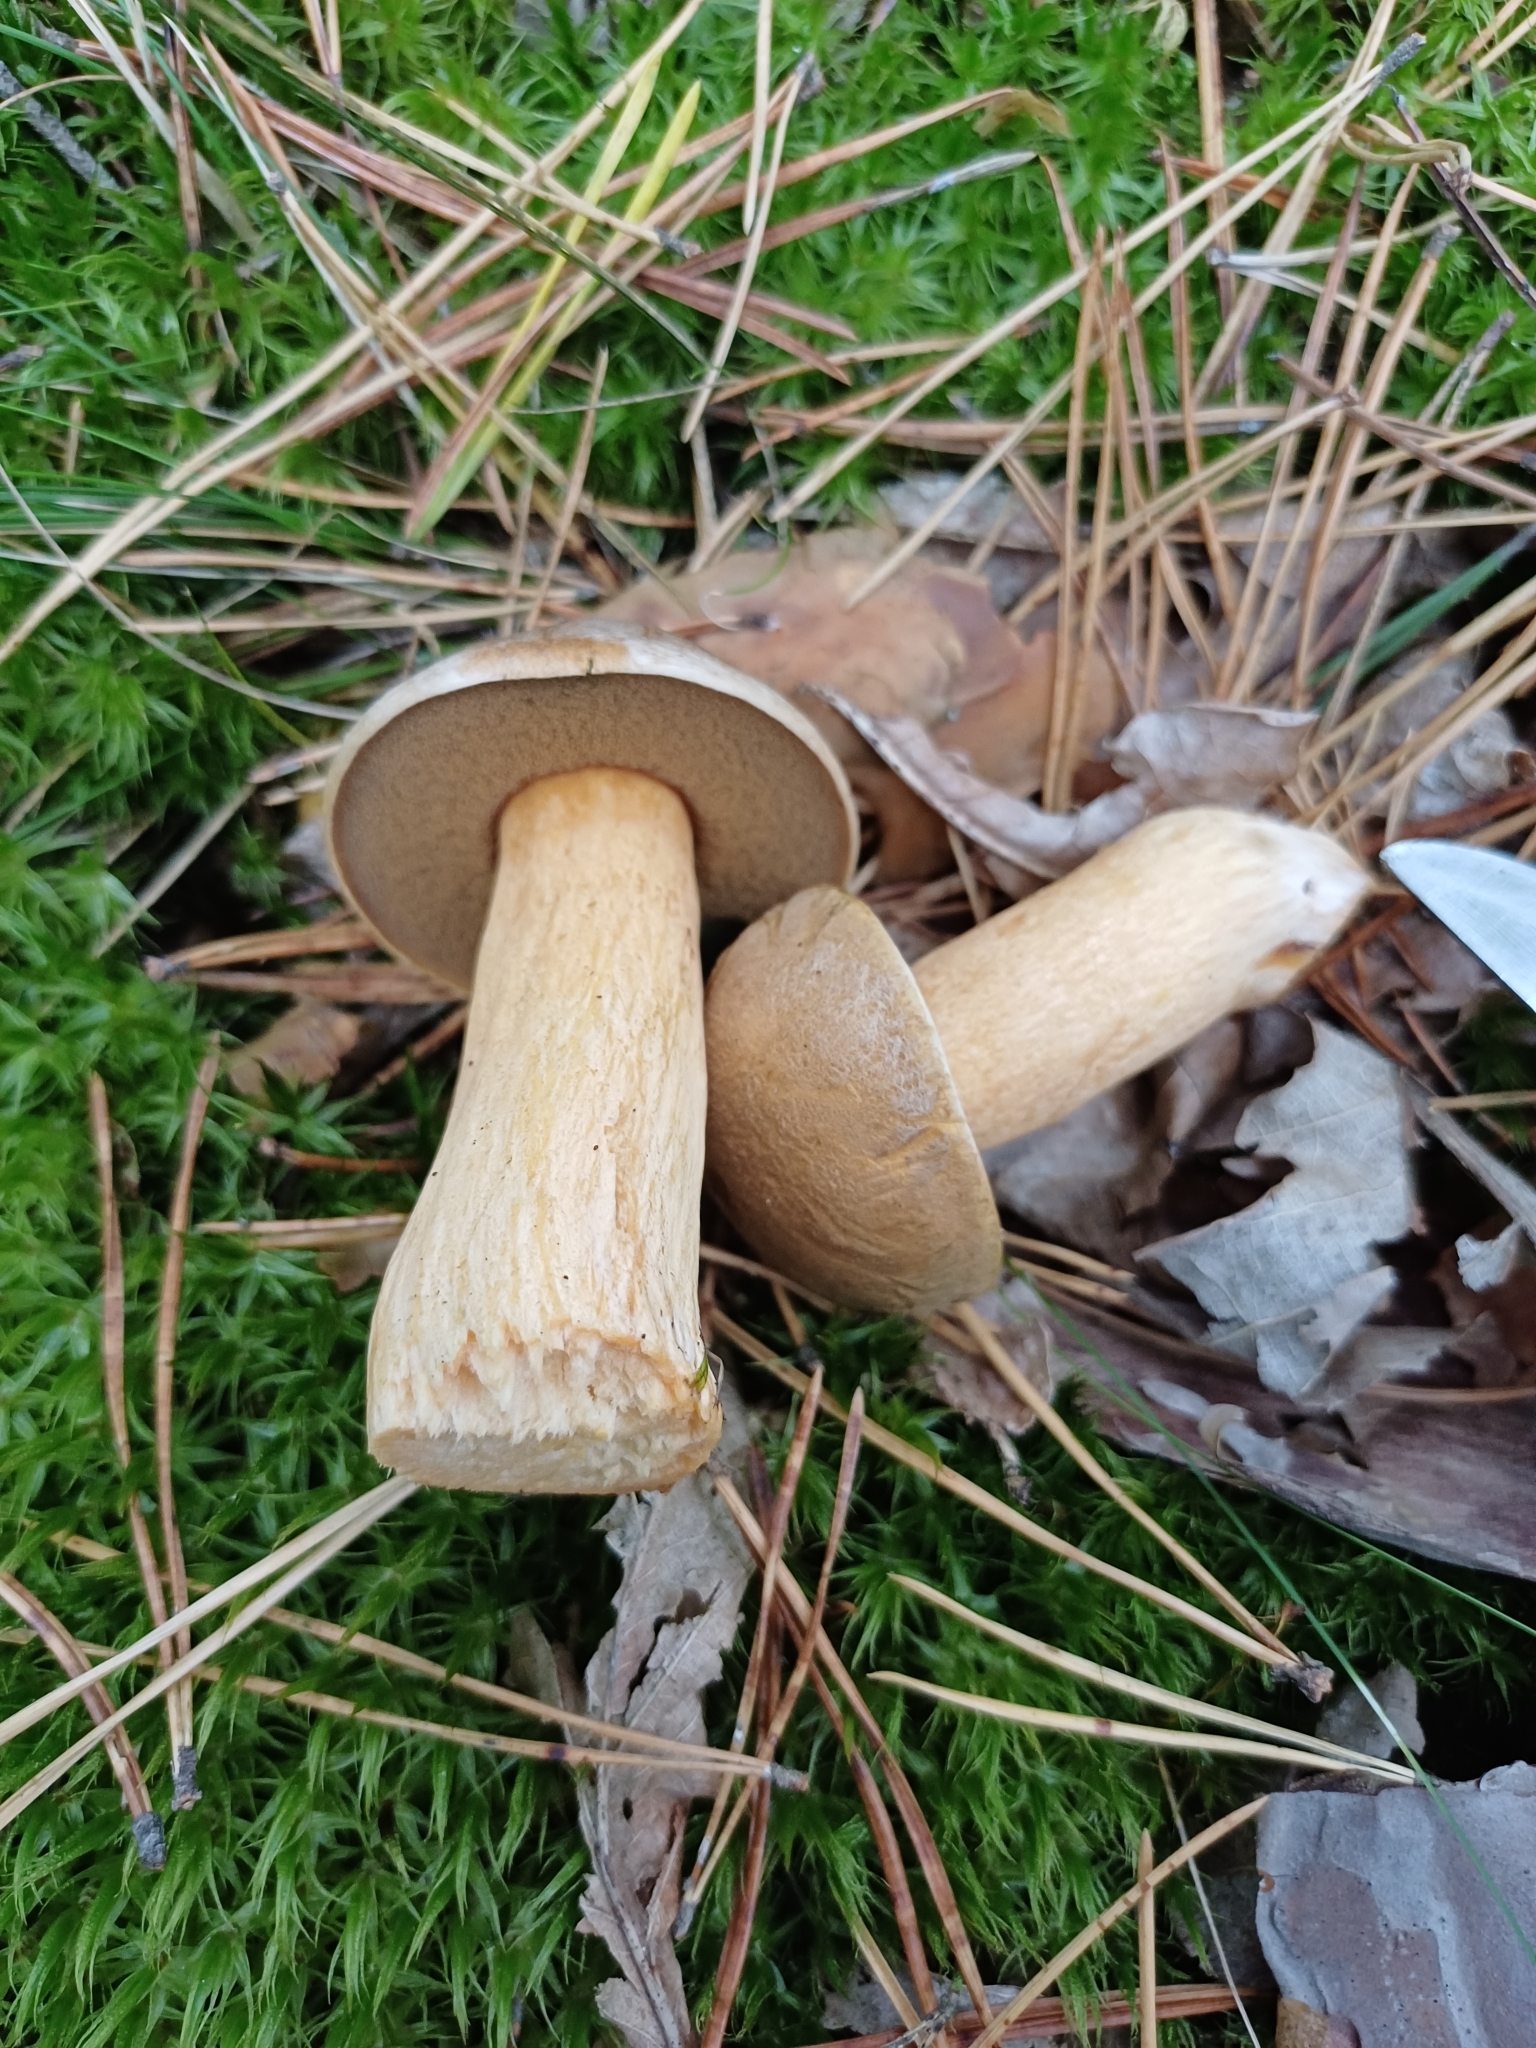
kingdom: Fungi
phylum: Basidiomycota
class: Agaricomycetes
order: Boletales
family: Suillaceae
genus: Suillus
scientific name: Suillus variegatus
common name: Velvet bolete
